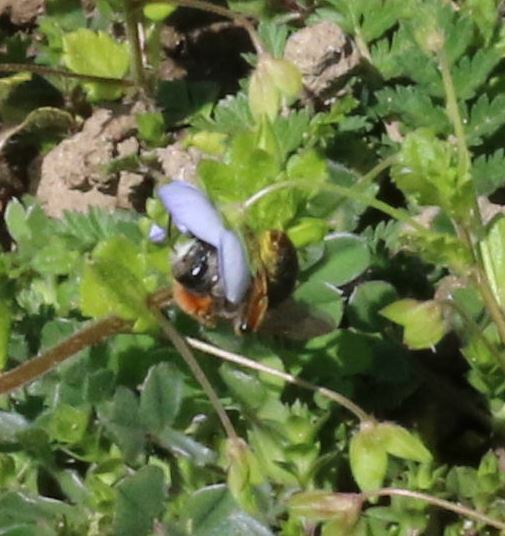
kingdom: Animalia
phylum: Arthropoda
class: Insecta
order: Hymenoptera
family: Andrenidae
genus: Andrena
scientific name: Andrena haemorrhoa
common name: Early mining bee
